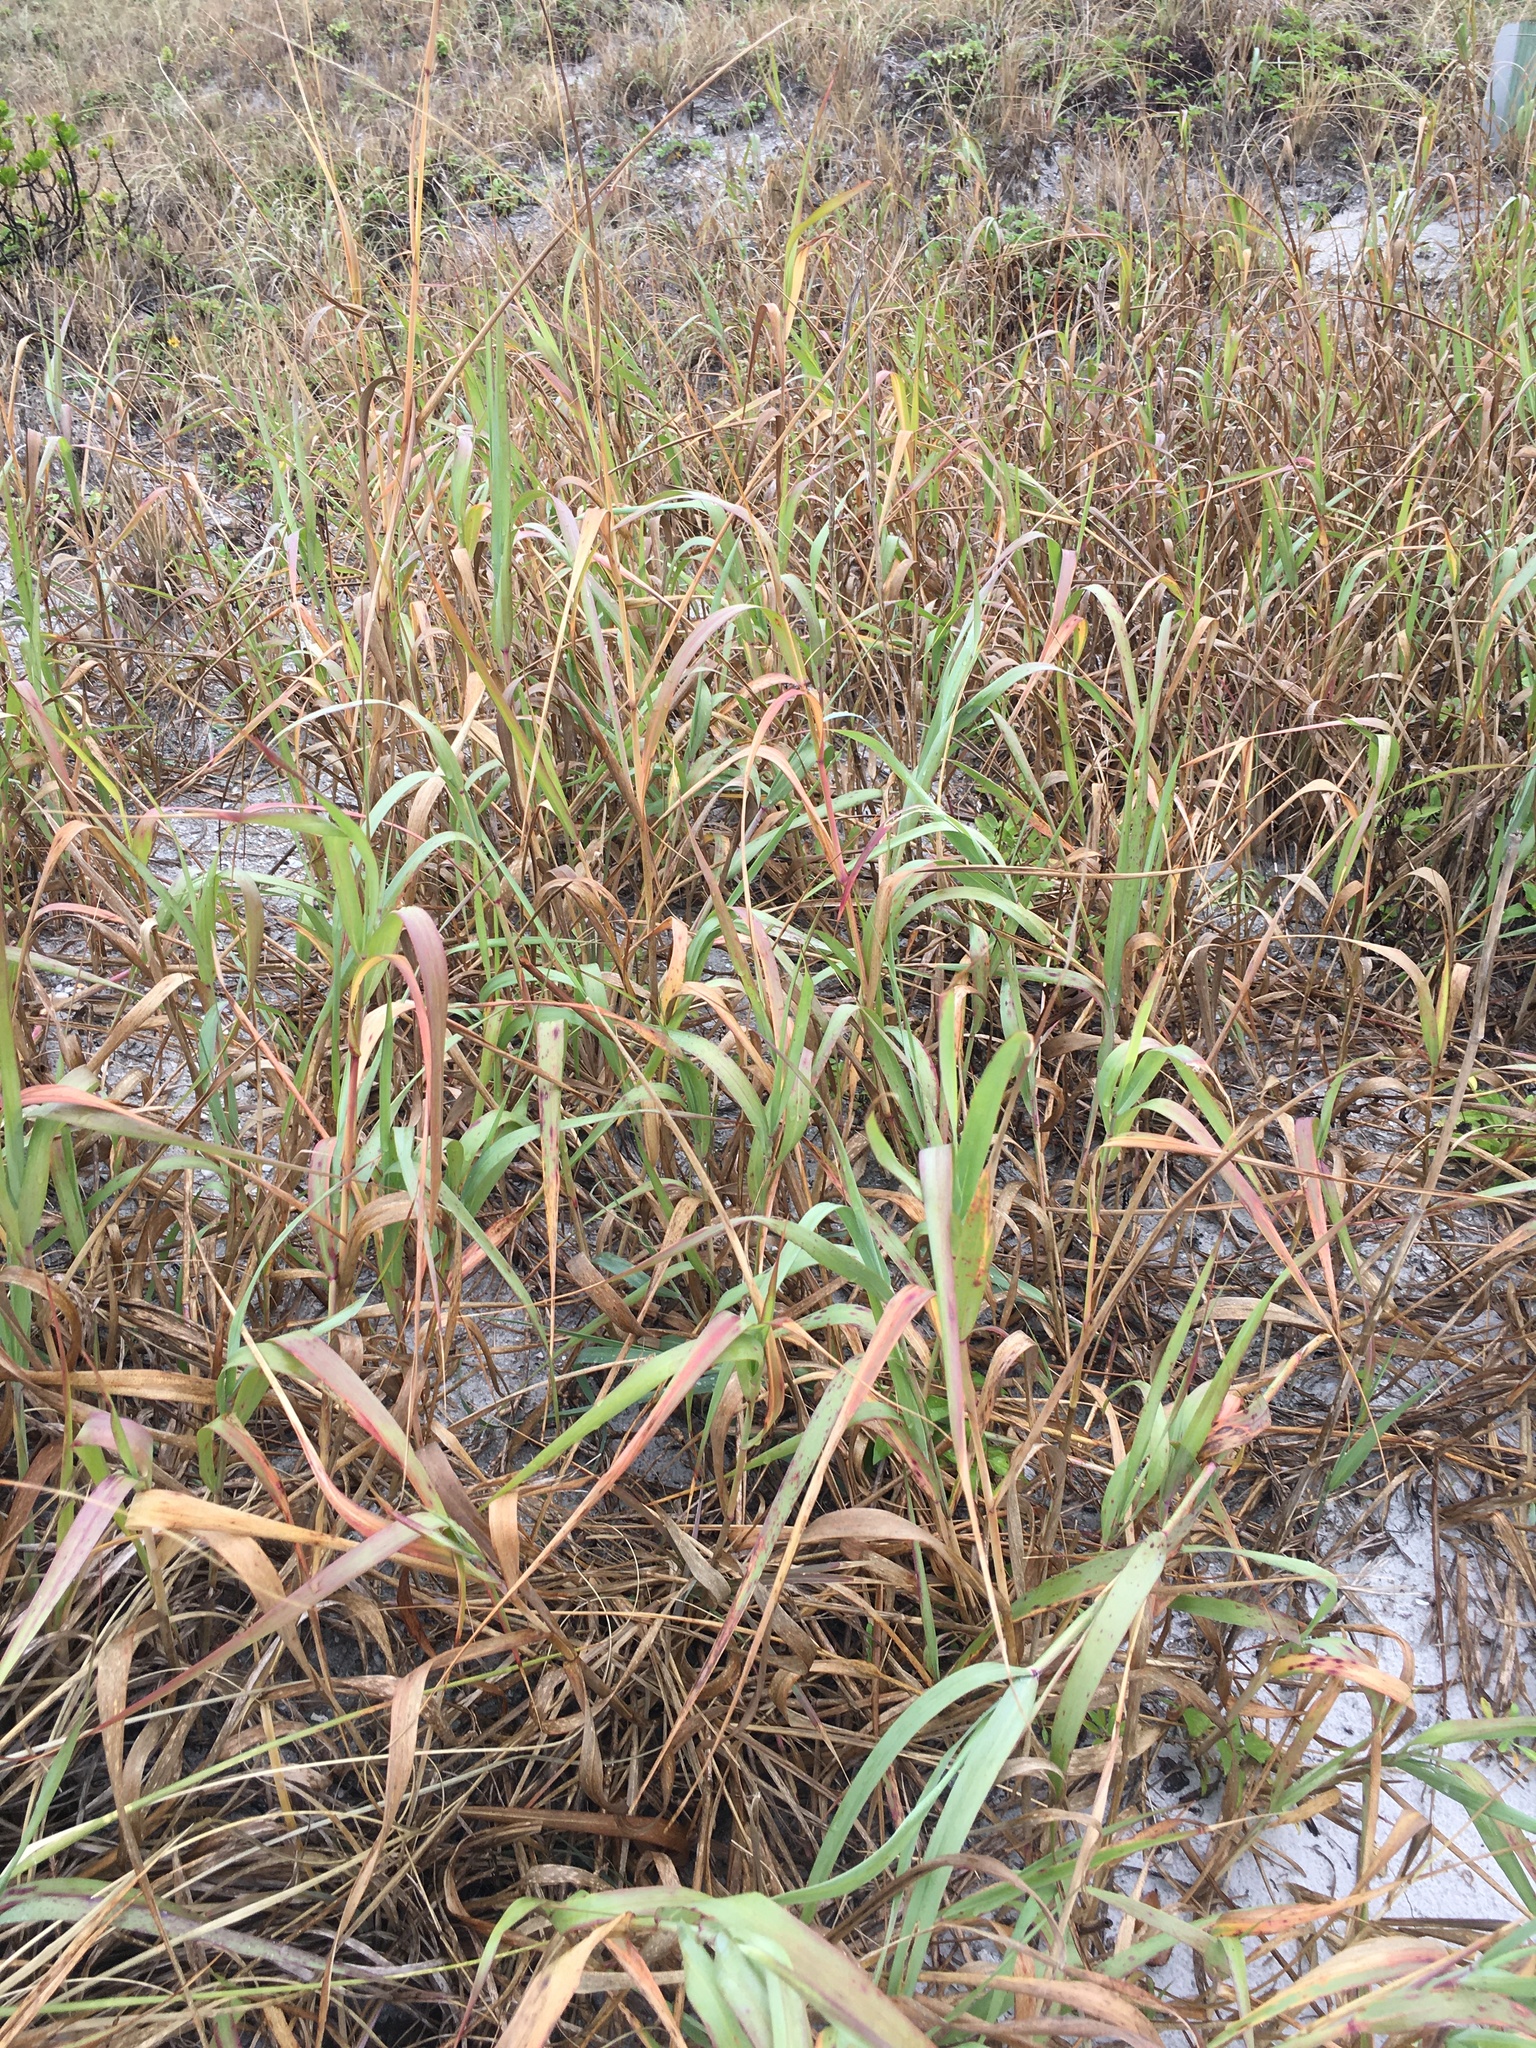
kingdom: Plantae
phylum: Tracheophyta
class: Liliopsida
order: Poales
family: Poaceae
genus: Imperata
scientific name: Imperata cylindrica
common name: Cogongrass
